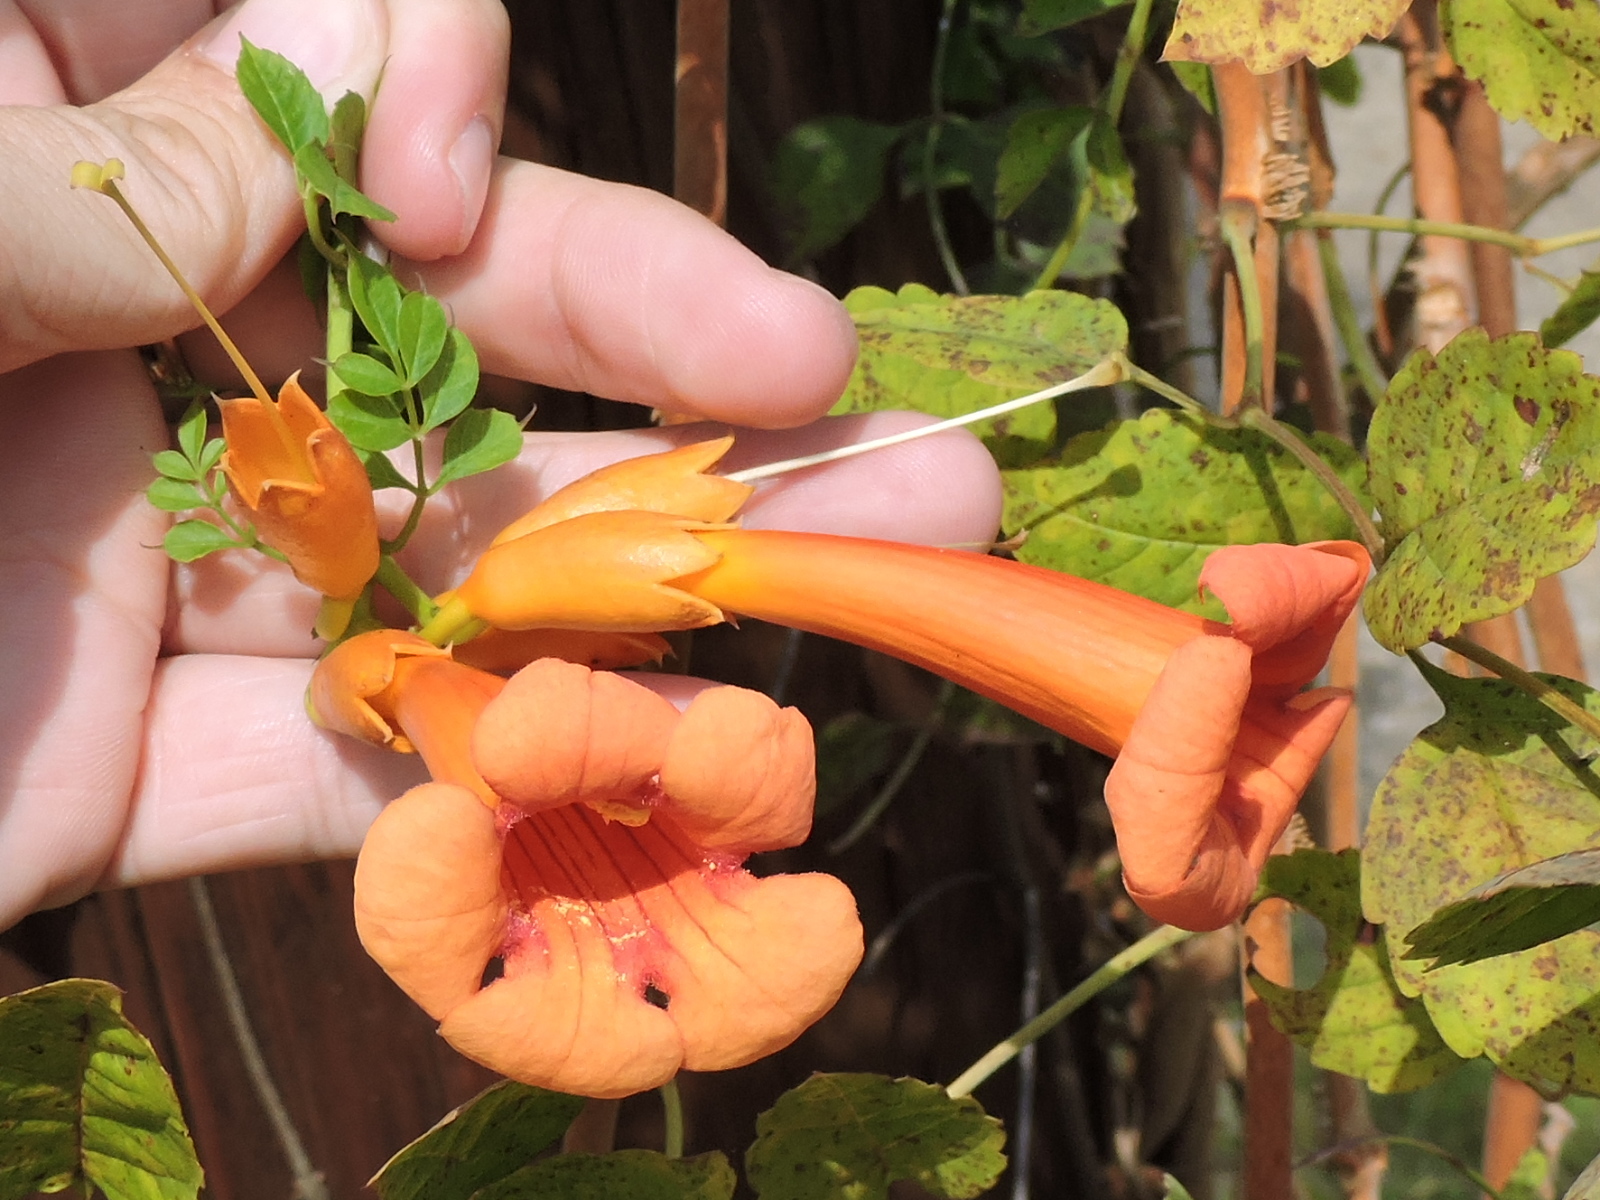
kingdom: Plantae
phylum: Tracheophyta
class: Magnoliopsida
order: Lamiales
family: Bignoniaceae
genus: Campsis
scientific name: Campsis radicans
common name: Trumpet-creeper
